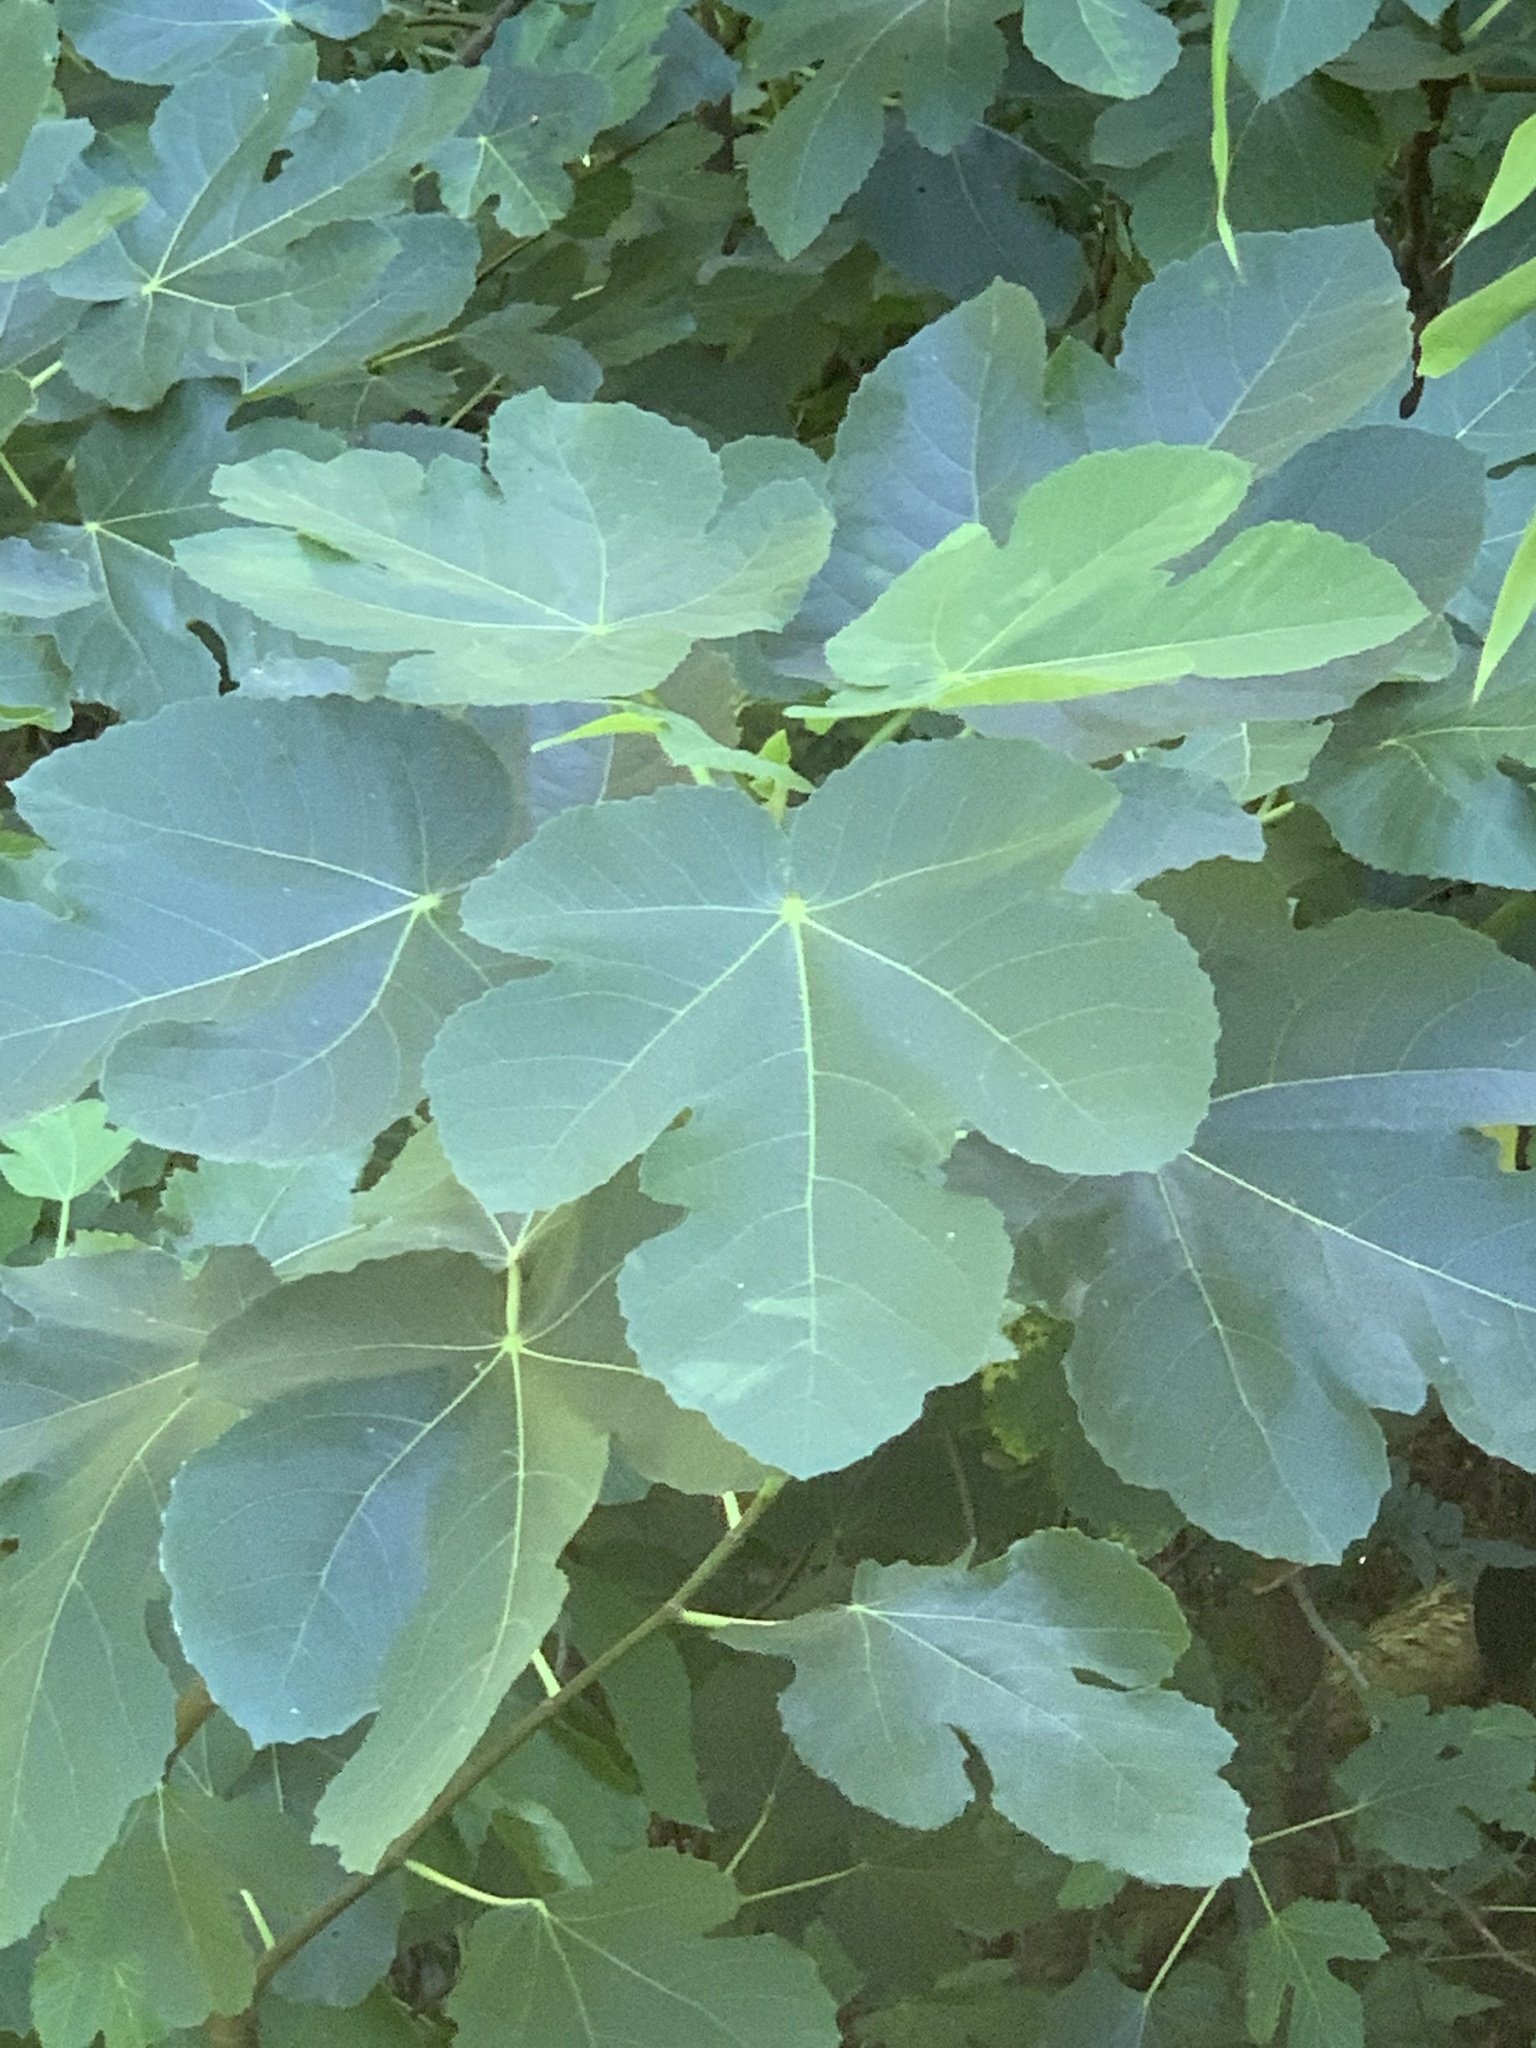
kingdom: Plantae
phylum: Tracheophyta
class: Magnoliopsida
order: Rosales
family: Moraceae
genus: Ficus
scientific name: Ficus carica
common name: Fig
